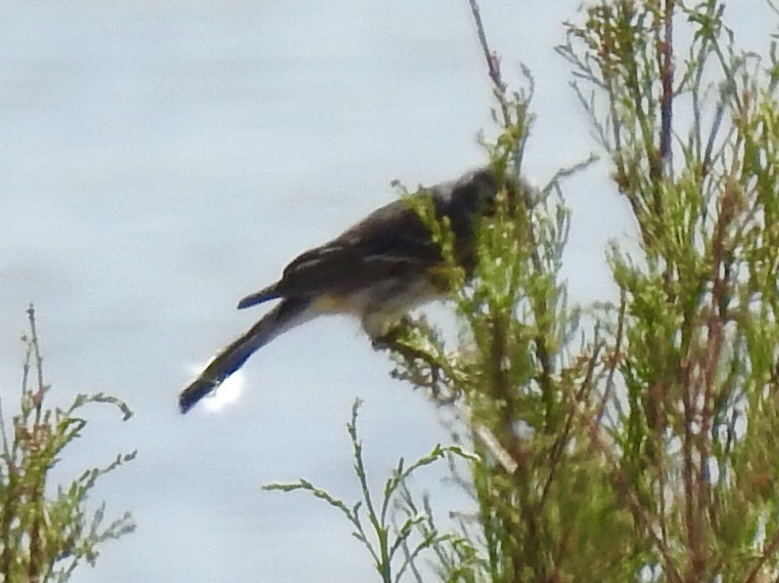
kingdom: Animalia
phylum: Chordata
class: Aves
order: Passeriformes
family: Parulidae
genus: Setophaga
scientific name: Setophaga coronata
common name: Myrtle warbler
